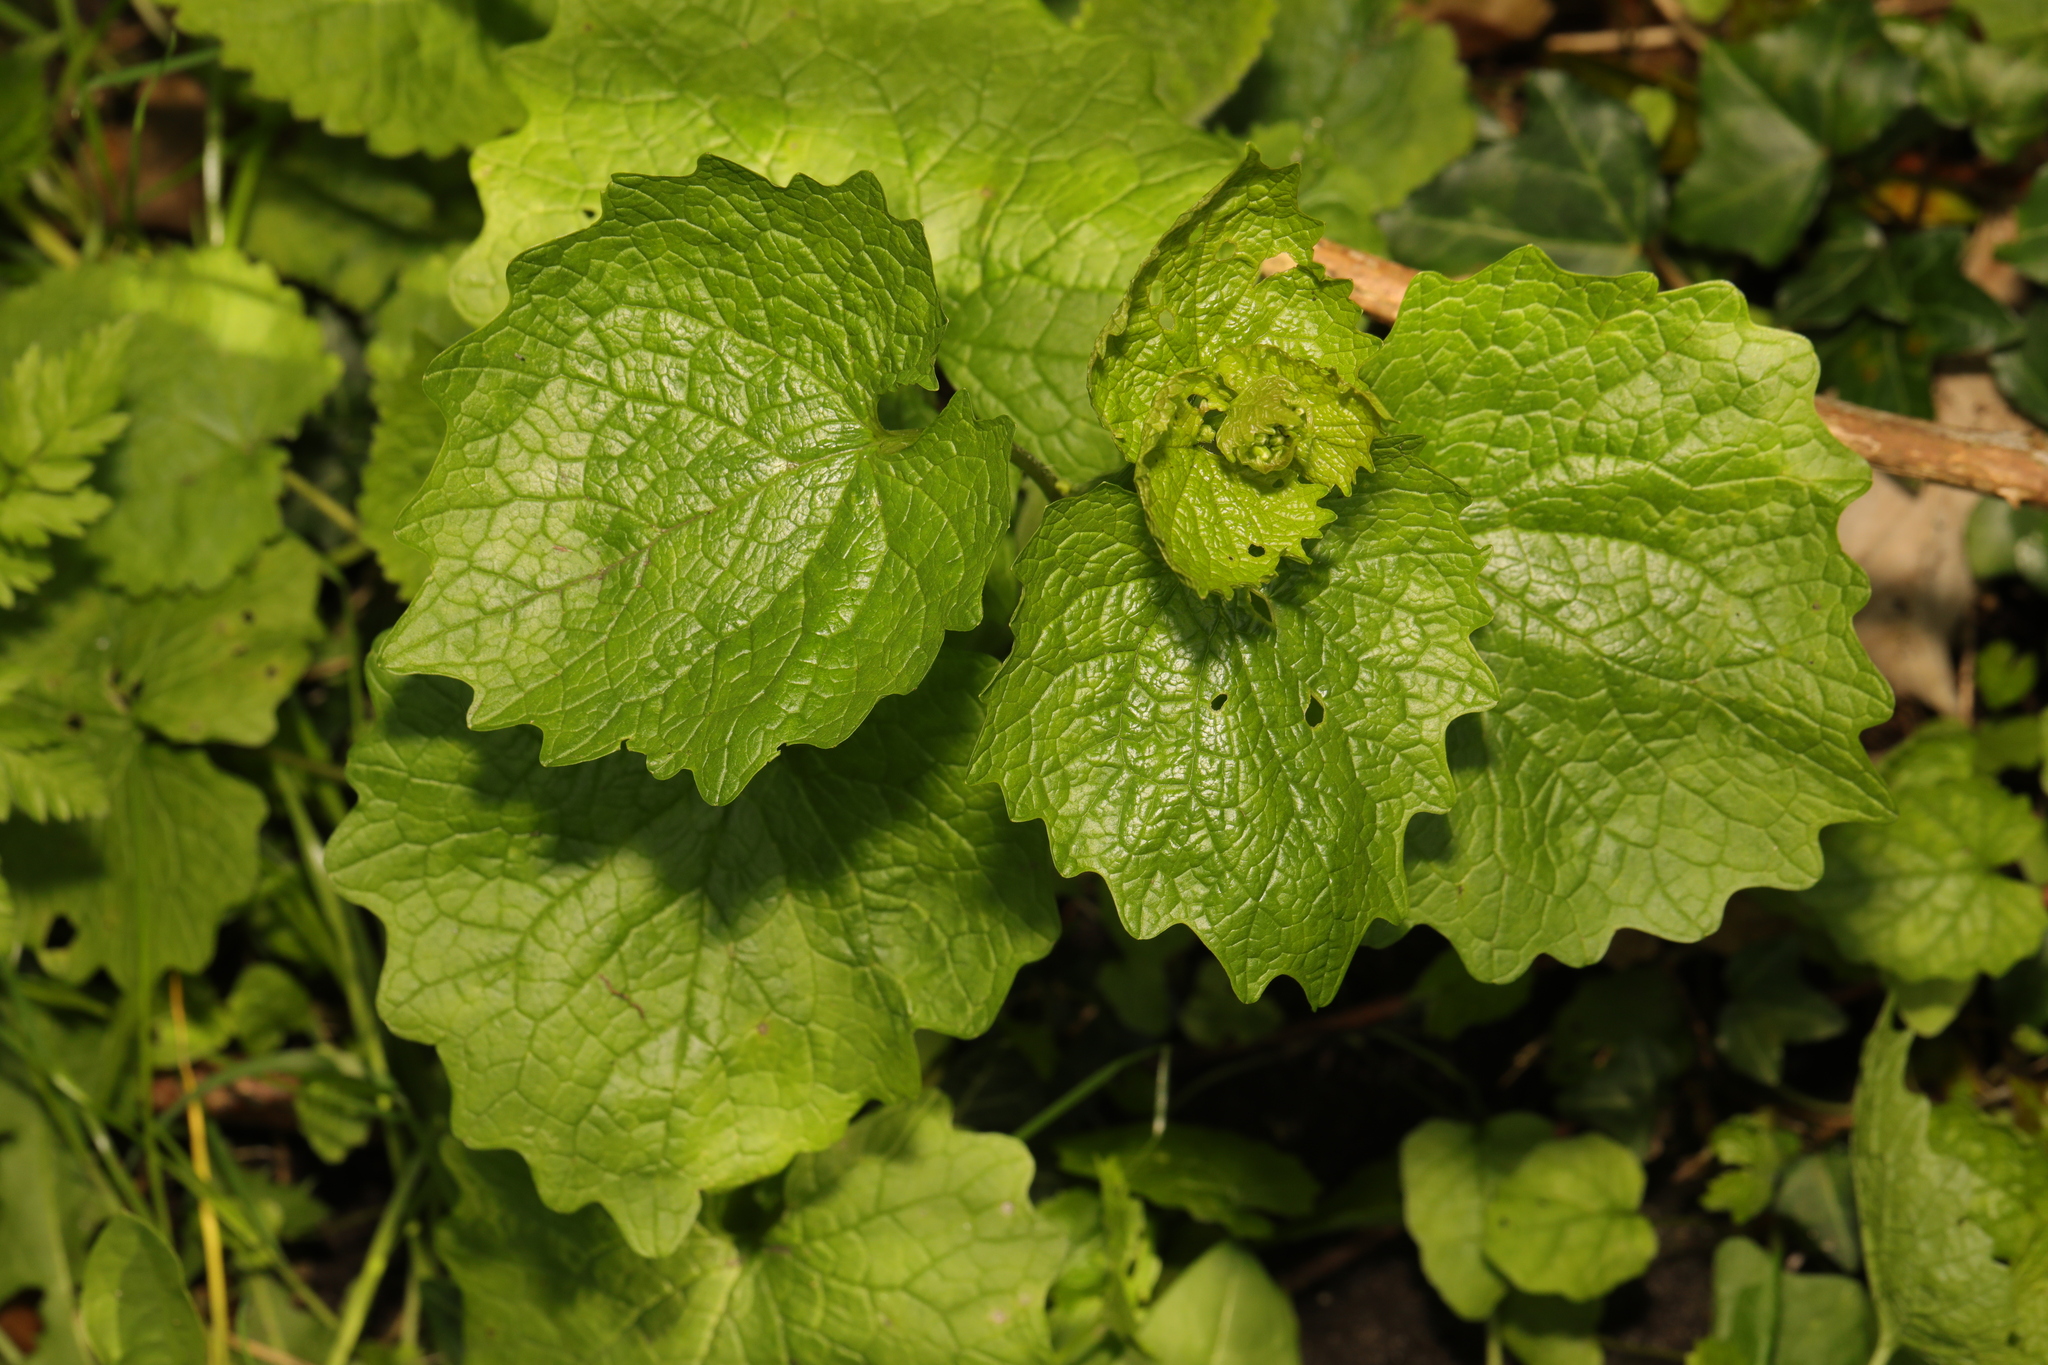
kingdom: Plantae
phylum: Tracheophyta
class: Magnoliopsida
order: Brassicales
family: Brassicaceae
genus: Alliaria
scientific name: Alliaria petiolata
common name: Garlic mustard
